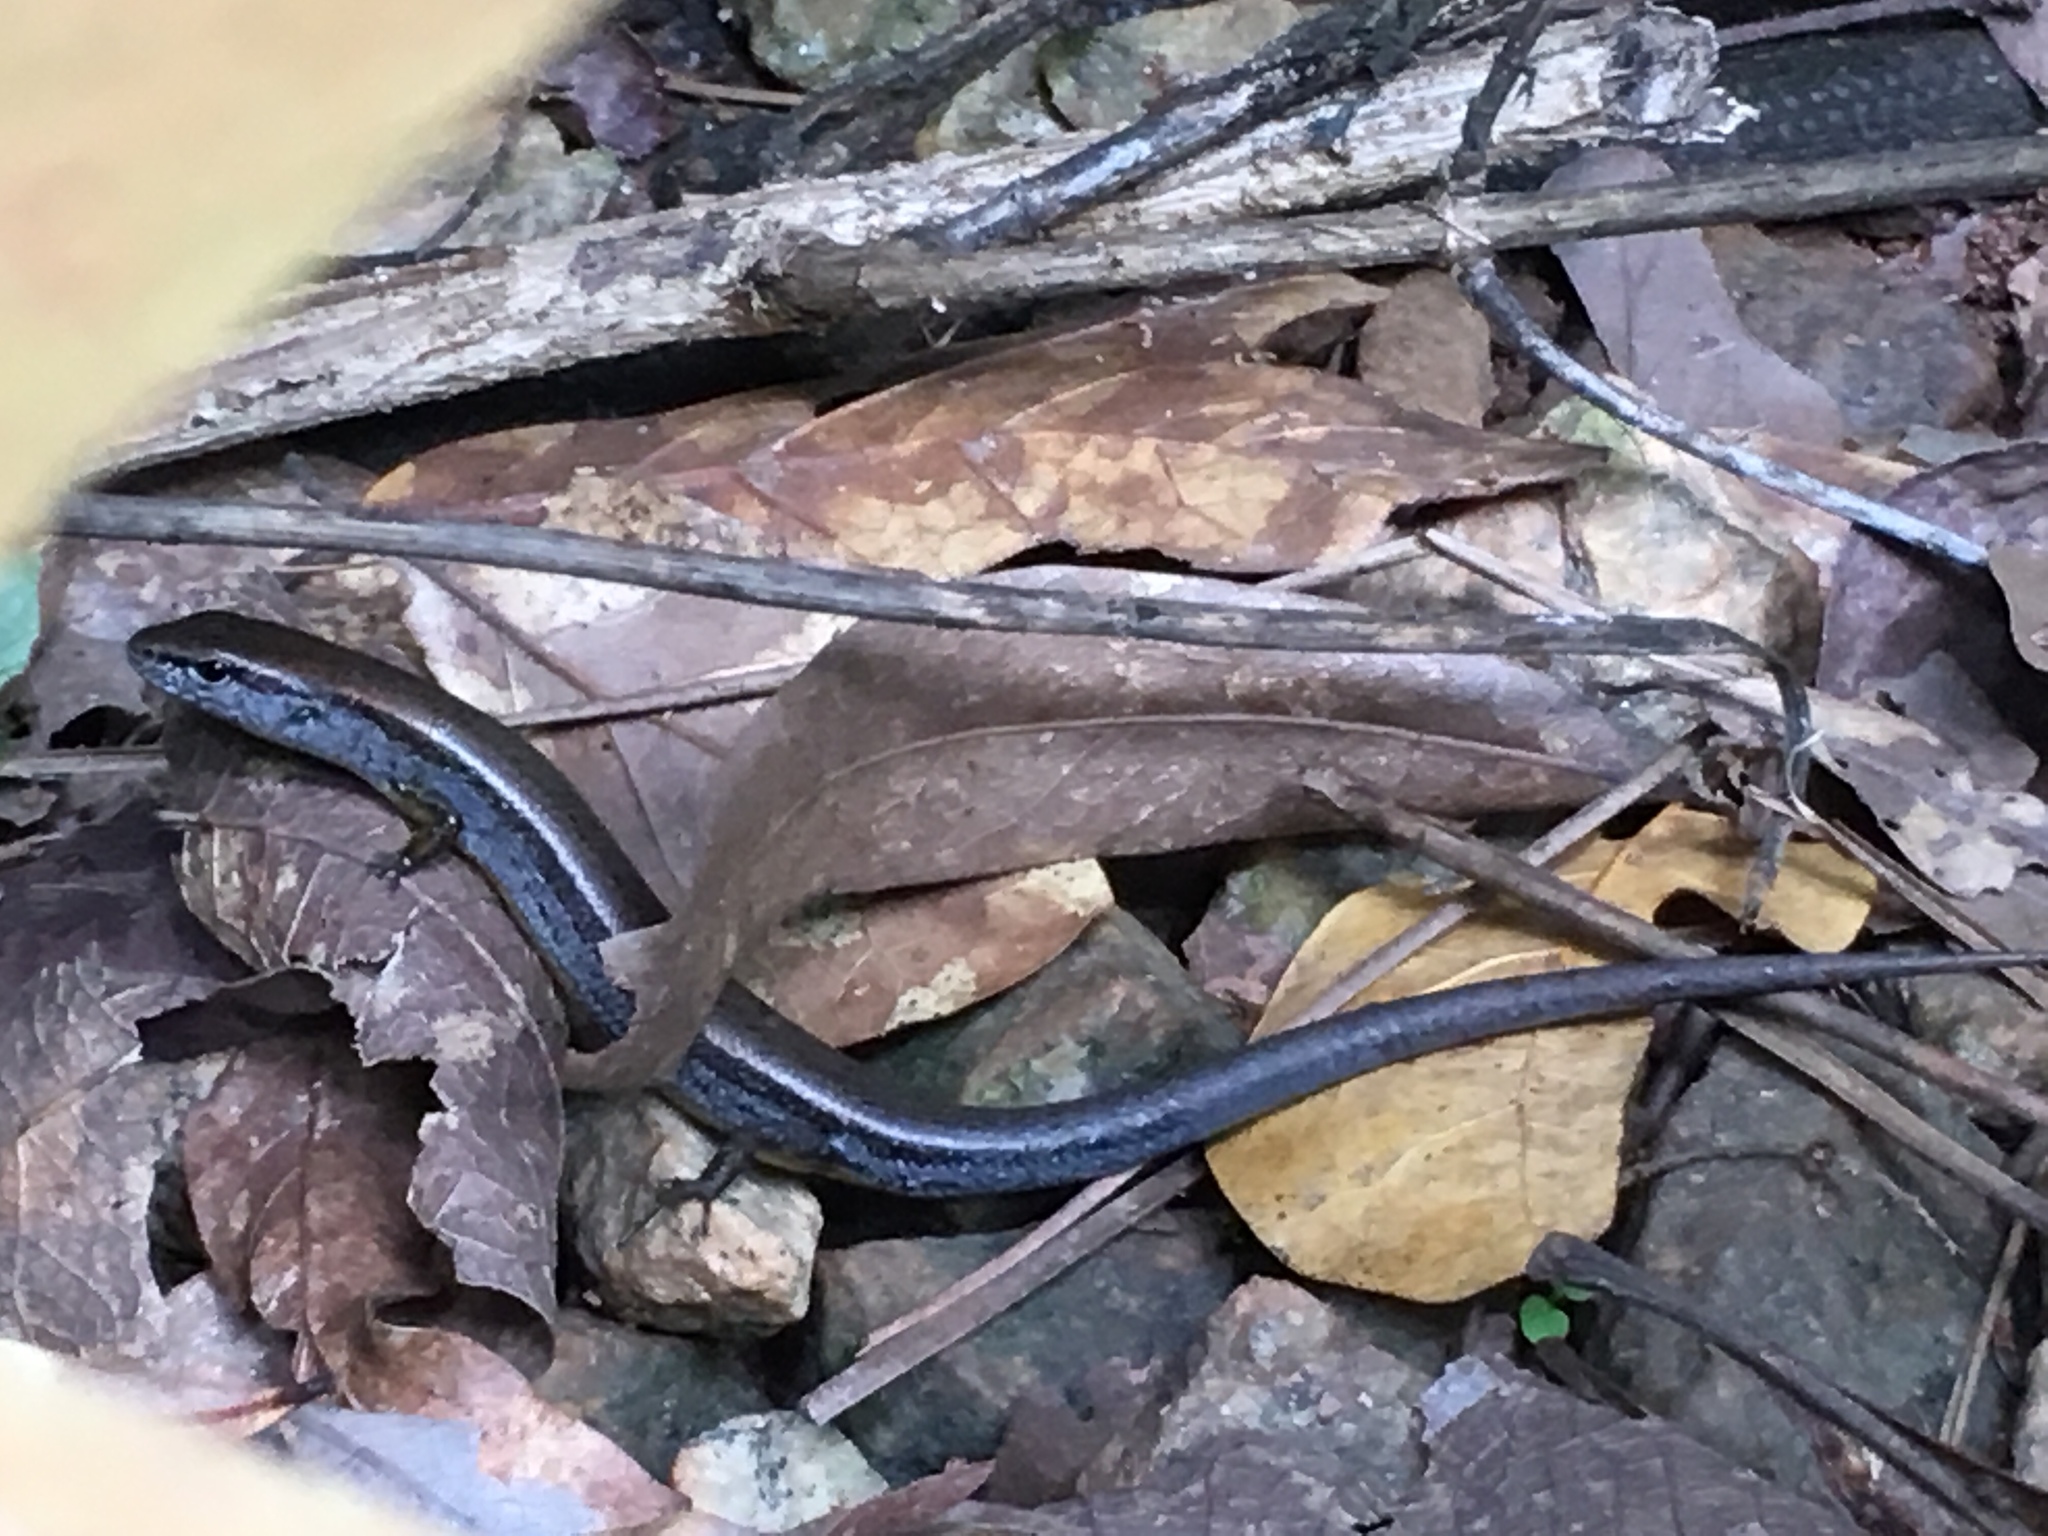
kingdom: Animalia
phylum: Chordata
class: Squamata
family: Scincidae
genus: Scincella
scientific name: Scincella lateralis
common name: Ground skink
